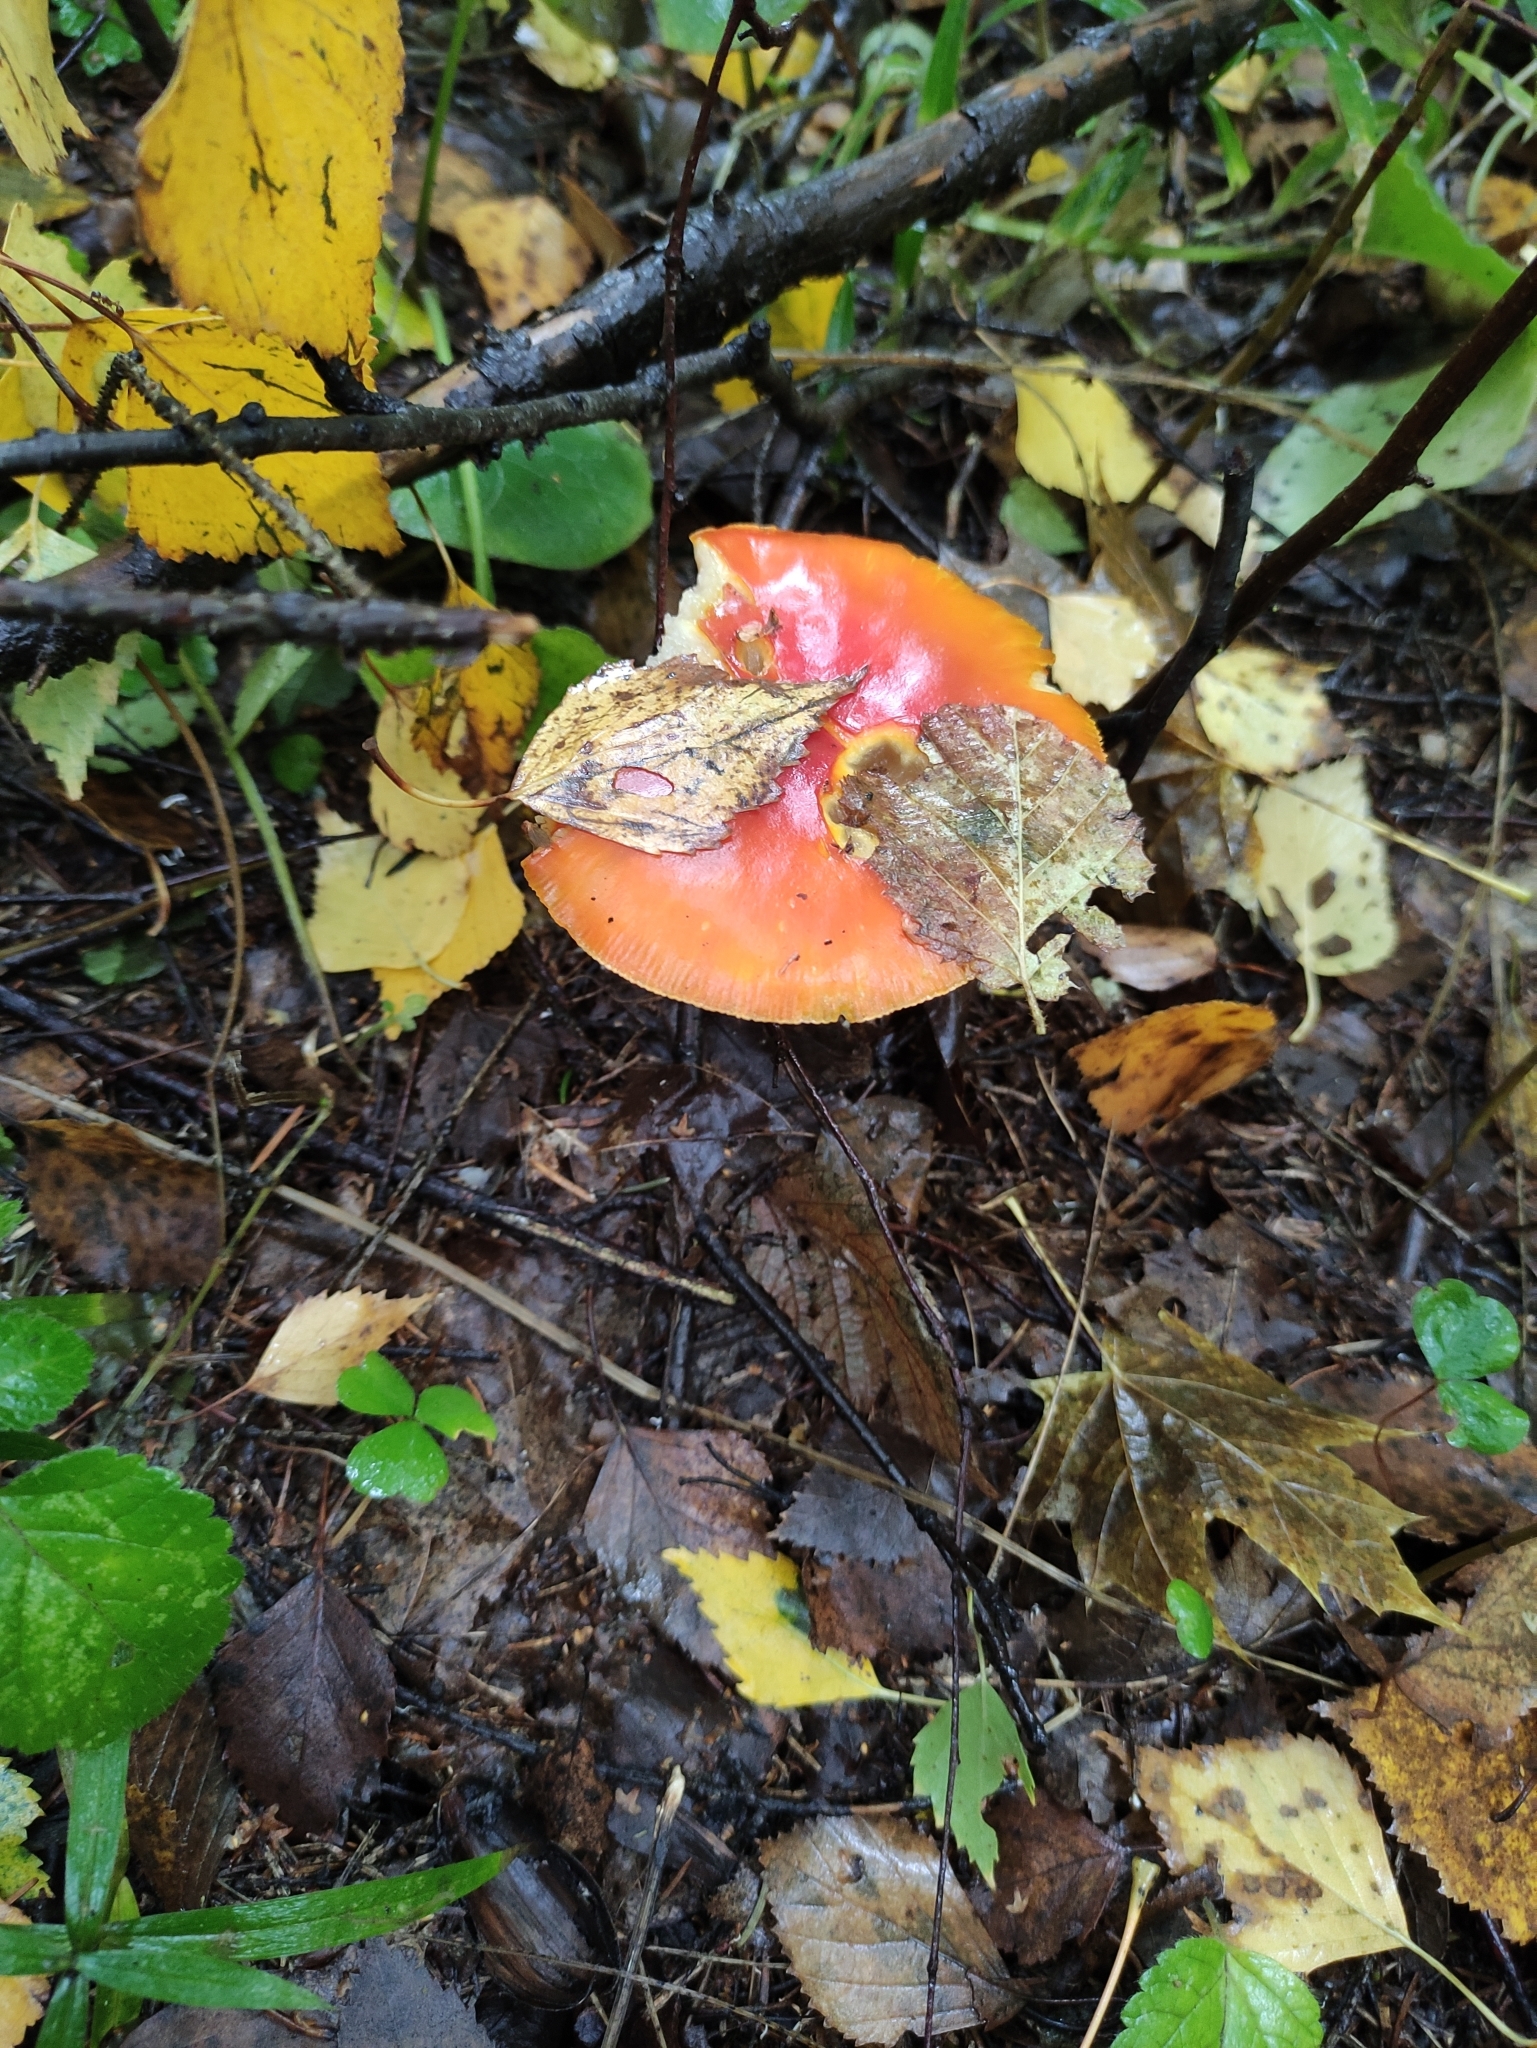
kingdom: Fungi
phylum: Basidiomycota
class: Agaricomycetes
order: Agaricales
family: Amanitaceae
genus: Amanita
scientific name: Amanita muscaria
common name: Fly agaric
